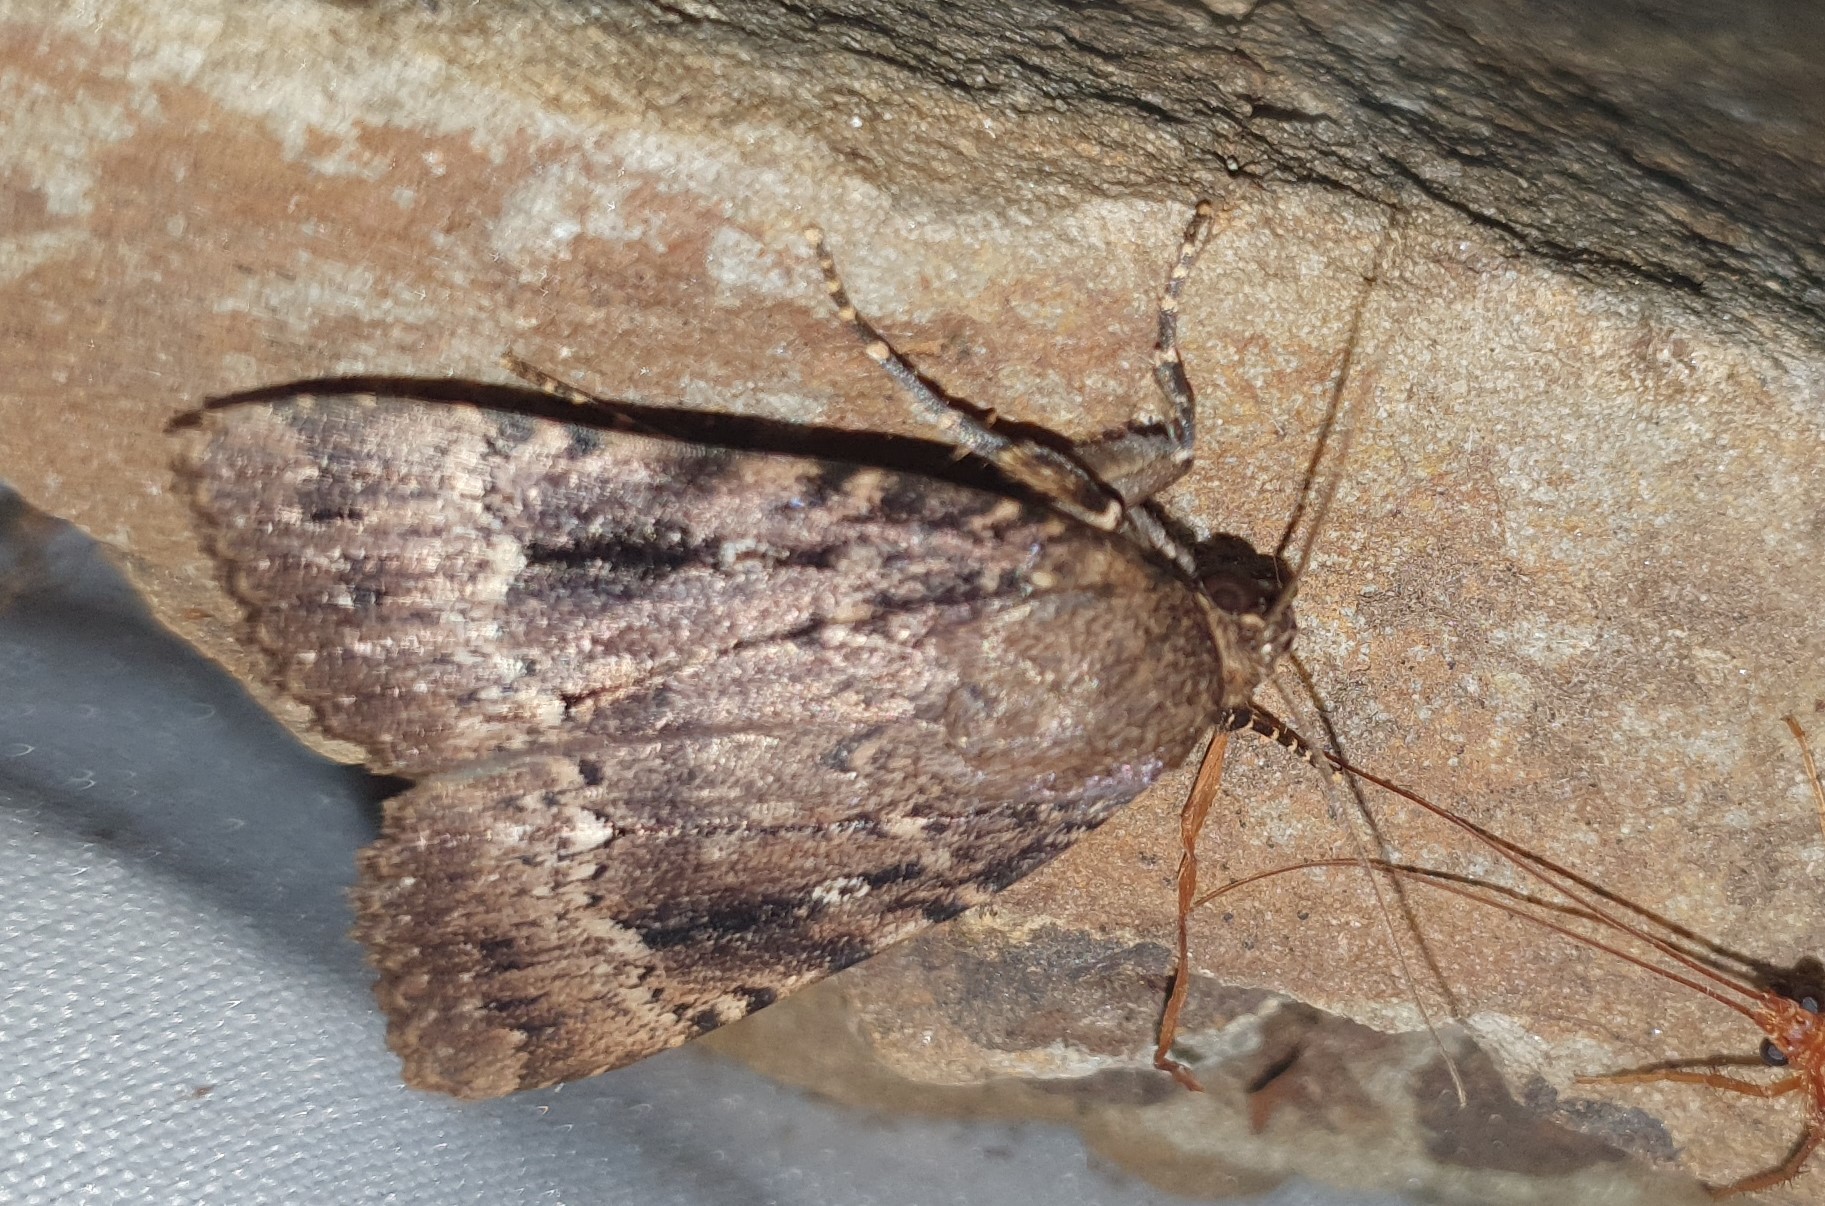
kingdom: Animalia
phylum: Arthropoda
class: Insecta
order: Lepidoptera
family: Noctuidae
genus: Amphipyra
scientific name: Amphipyra pyramidea
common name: Copper underwing
